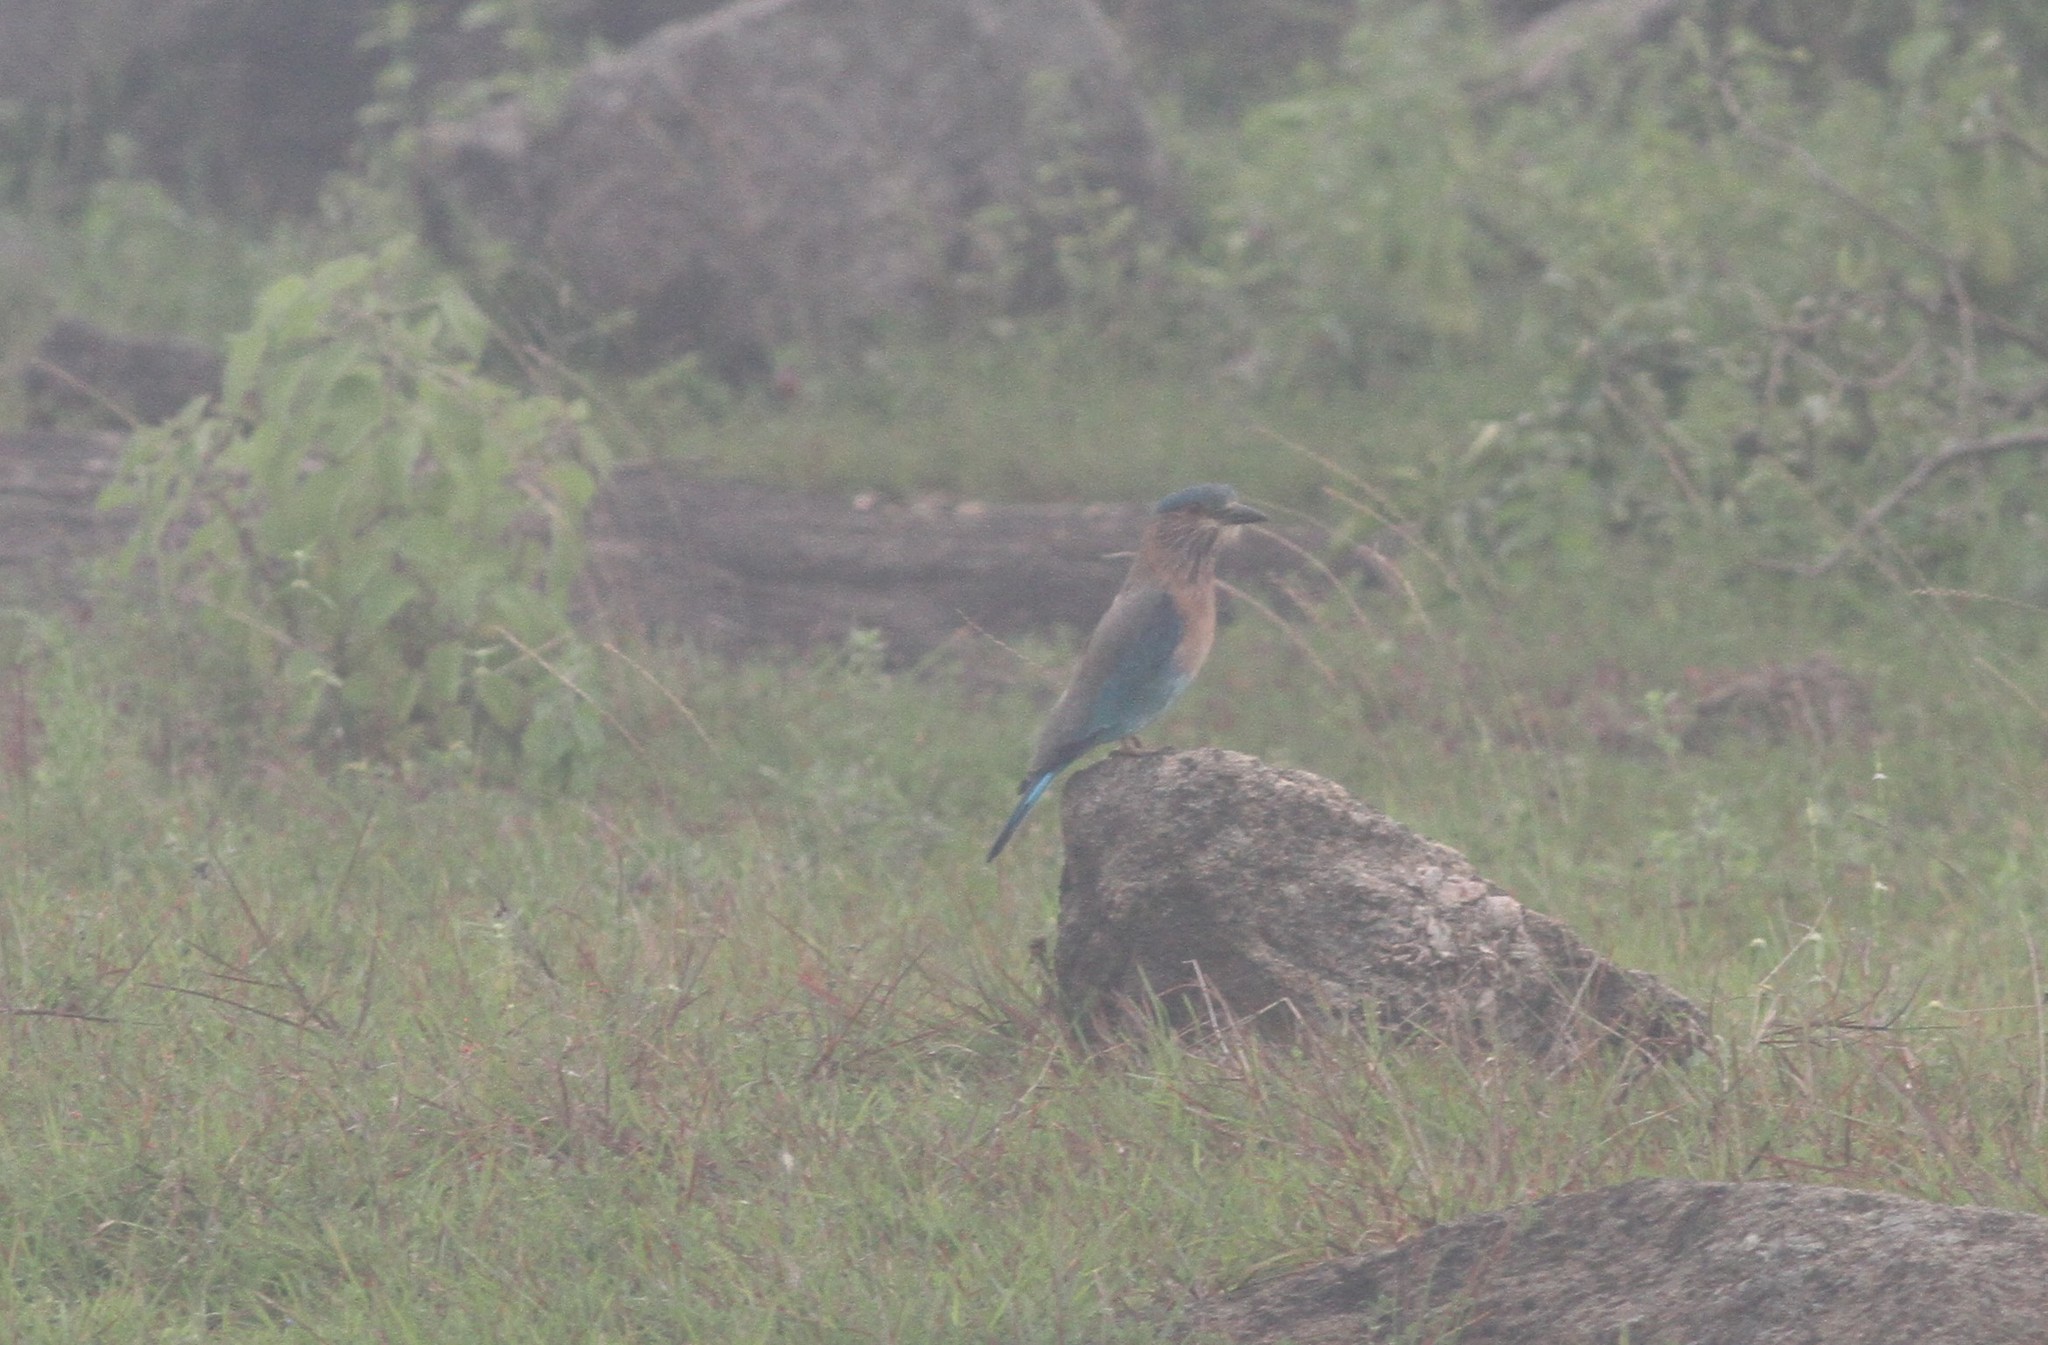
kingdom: Animalia
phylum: Chordata
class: Aves
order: Coraciiformes
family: Coraciidae
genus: Coracias
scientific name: Coracias benghalensis
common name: Indian roller
